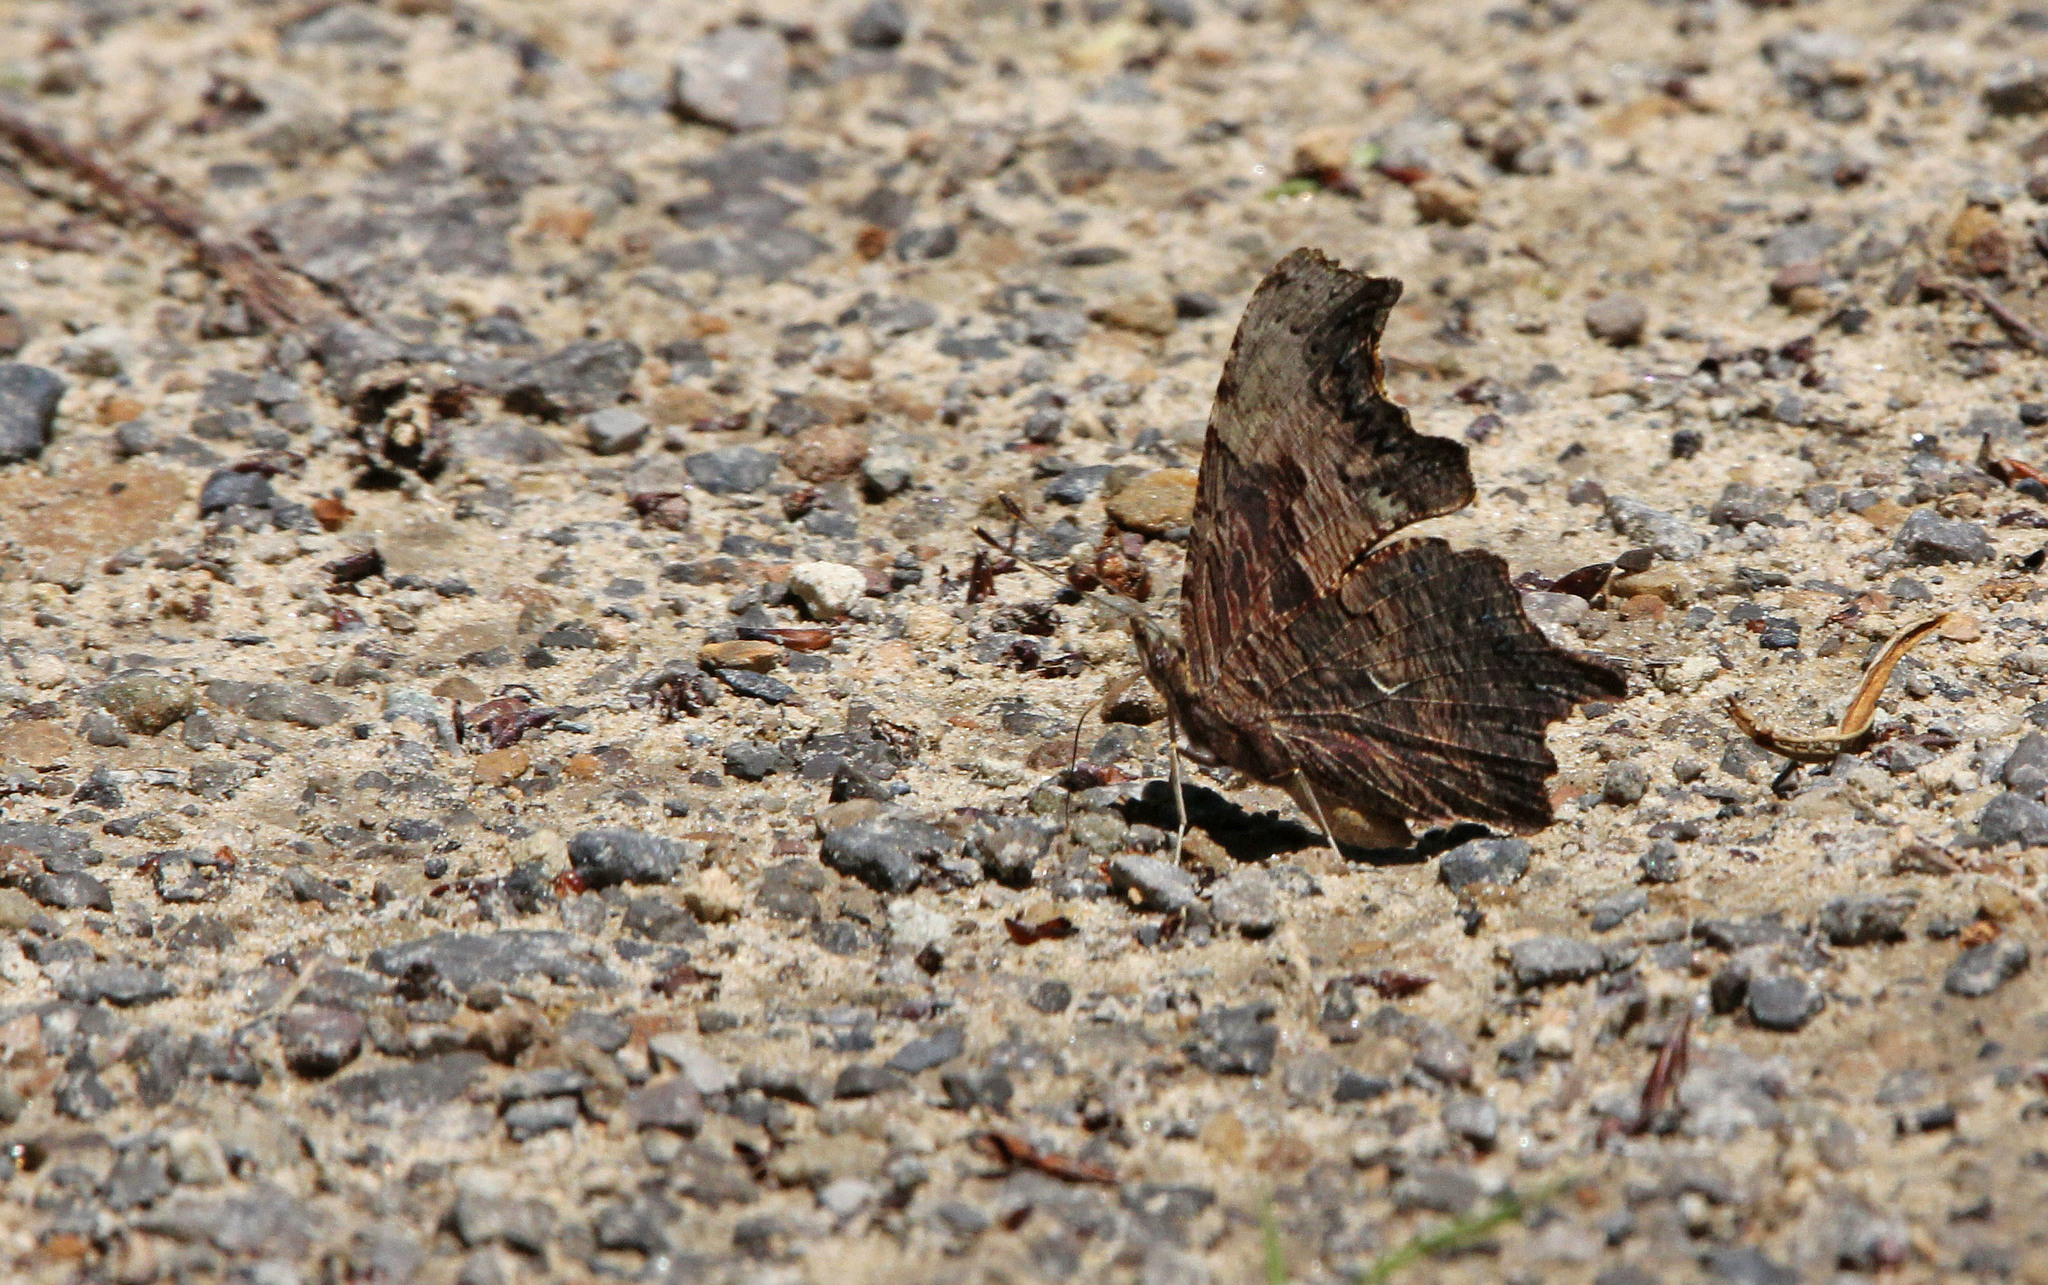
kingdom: Animalia
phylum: Arthropoda
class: Insecta
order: Lepidoptera
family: Nymphalidae
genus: Polygonia
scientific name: Polygonia progne
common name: Gray comma
